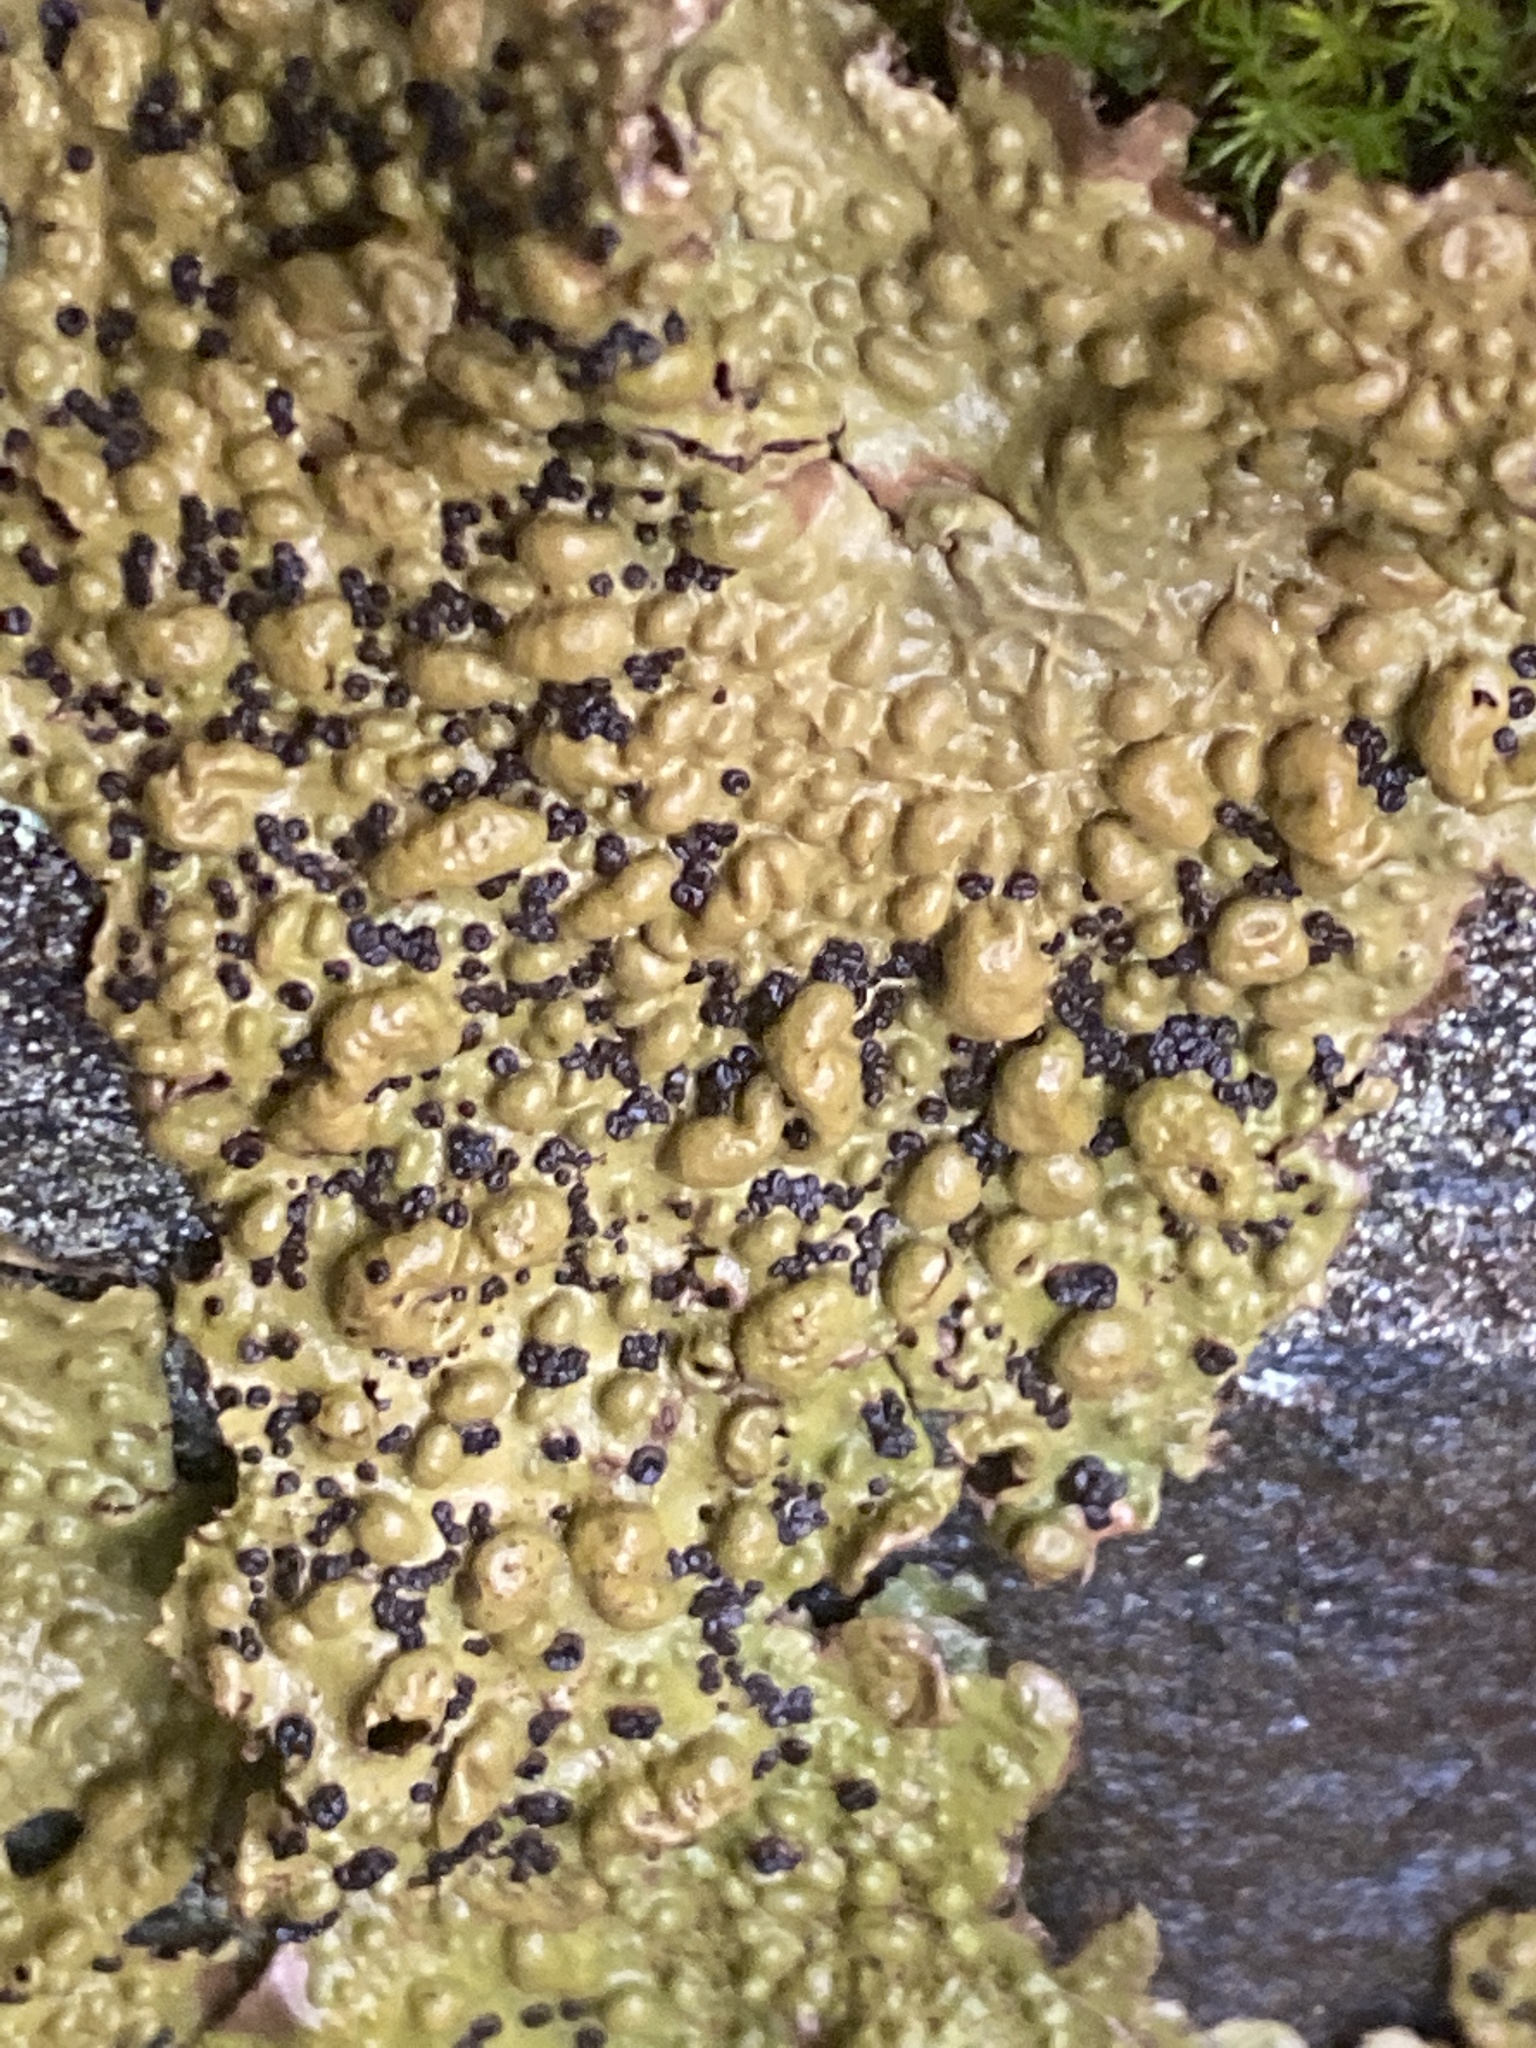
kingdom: Fungi
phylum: Ascomycota
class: Lecanoromycetes
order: Umbilicariales
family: Umbilicariaceae
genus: Lasallia
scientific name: Lasallia papulosa
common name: Common toadskin lichen
